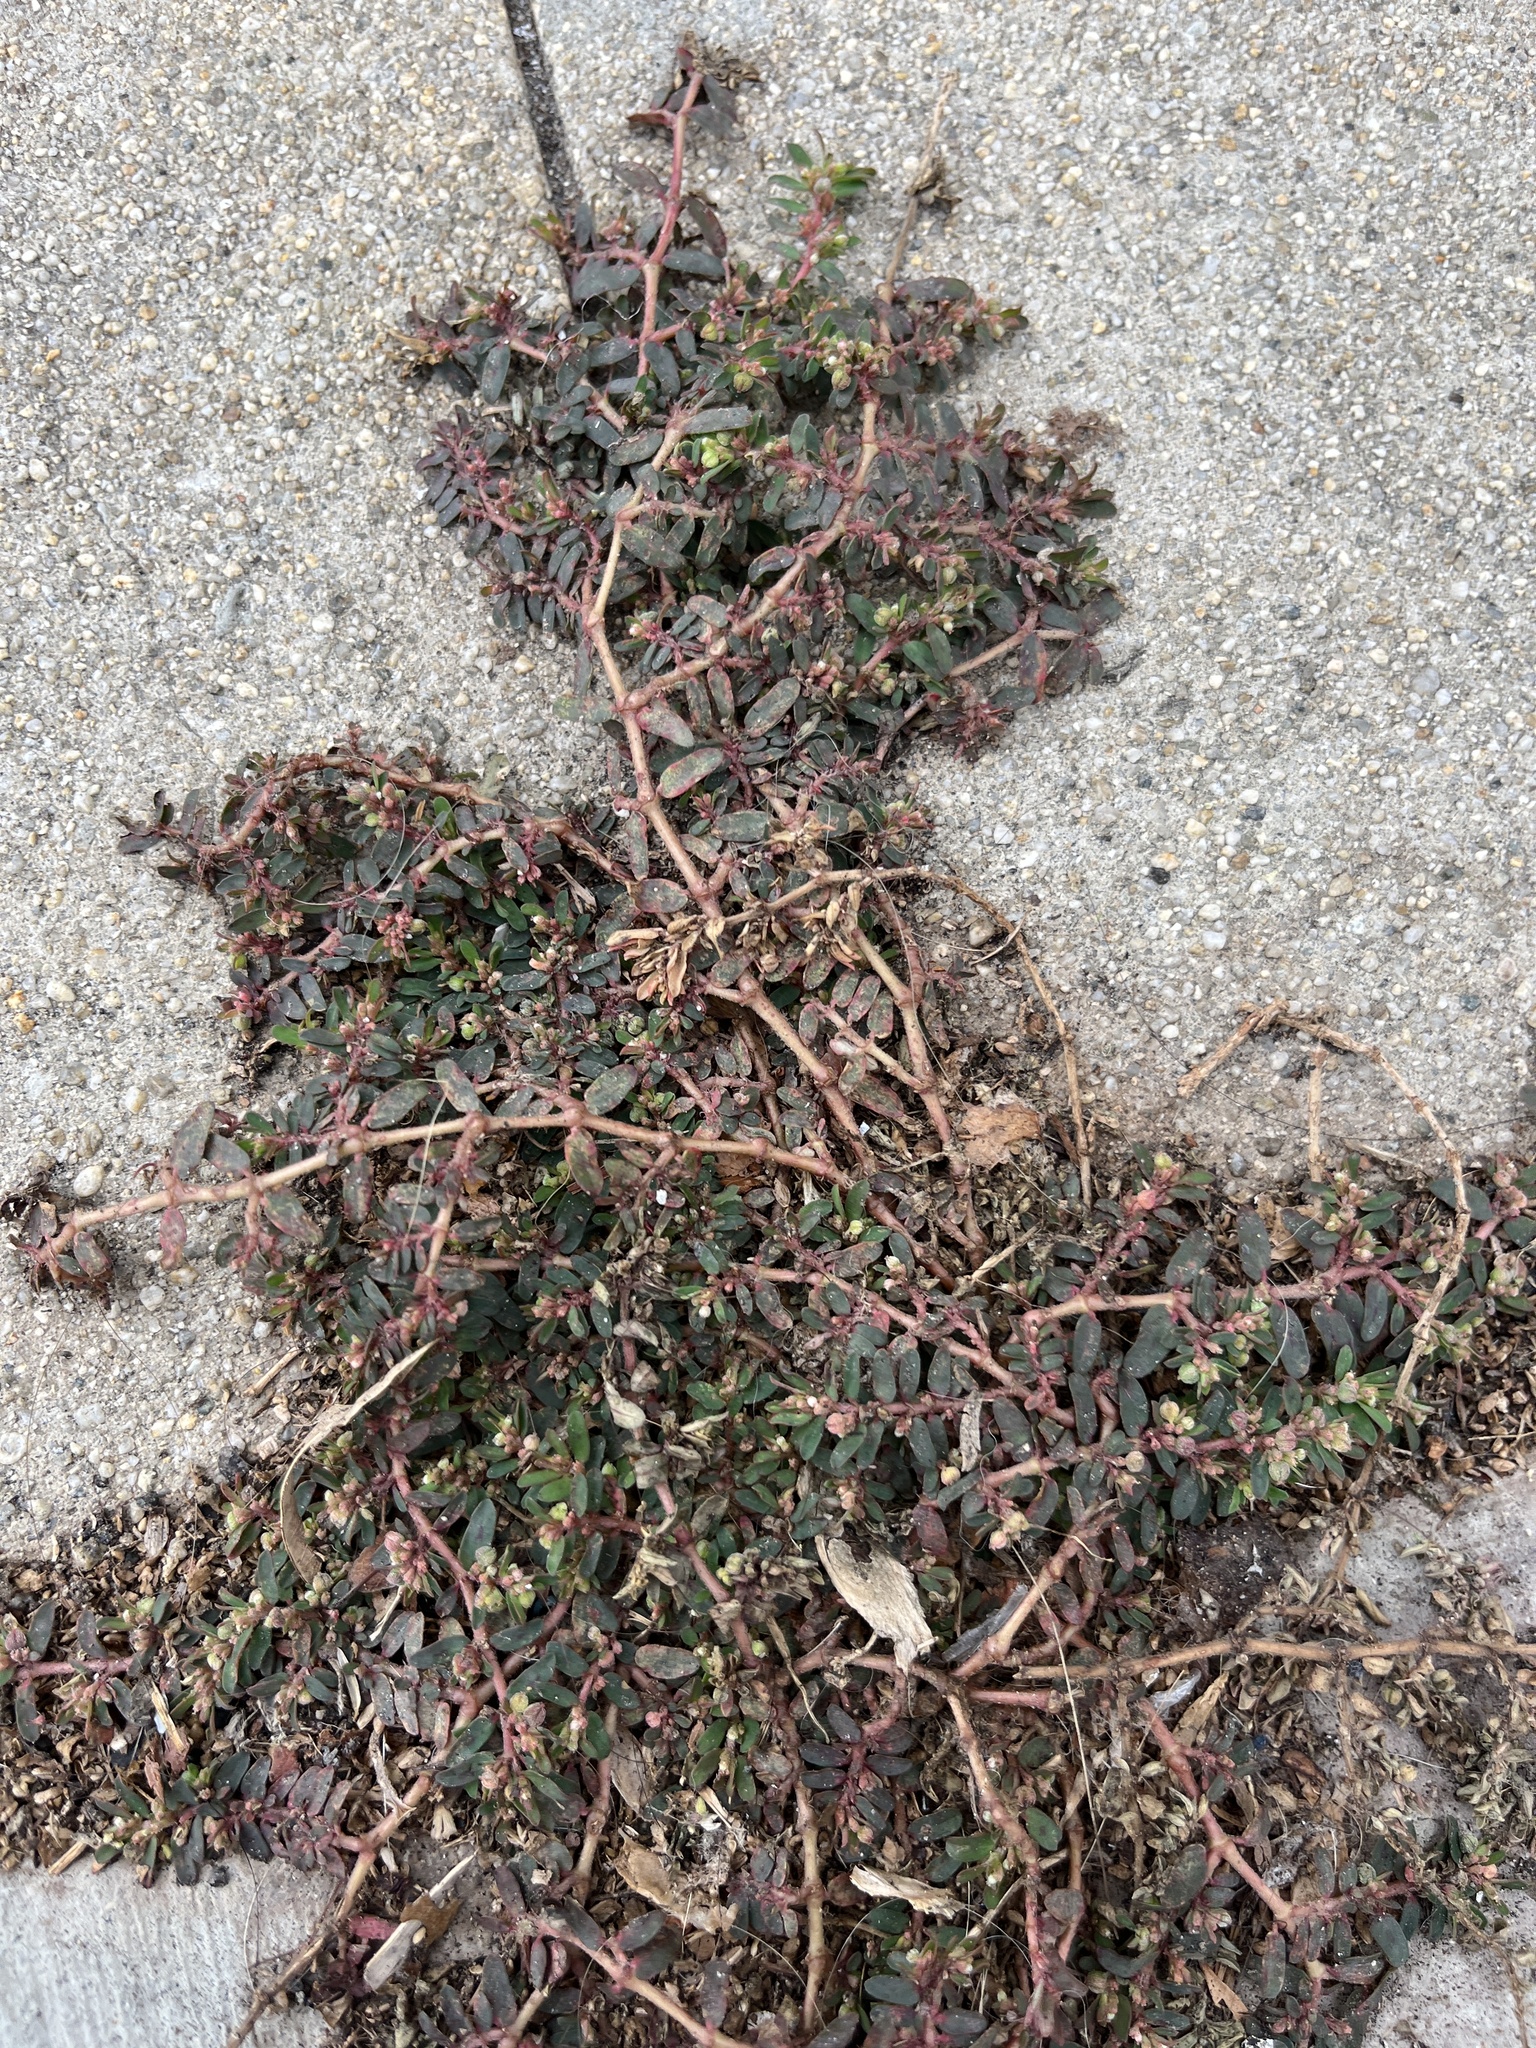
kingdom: Plantae
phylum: Tracheophyta
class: Magnoliopsida
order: Malpighiales
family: Euphorbiaceae
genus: Euphorbia
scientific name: Euphorbia maculata
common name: Spotted spurge
